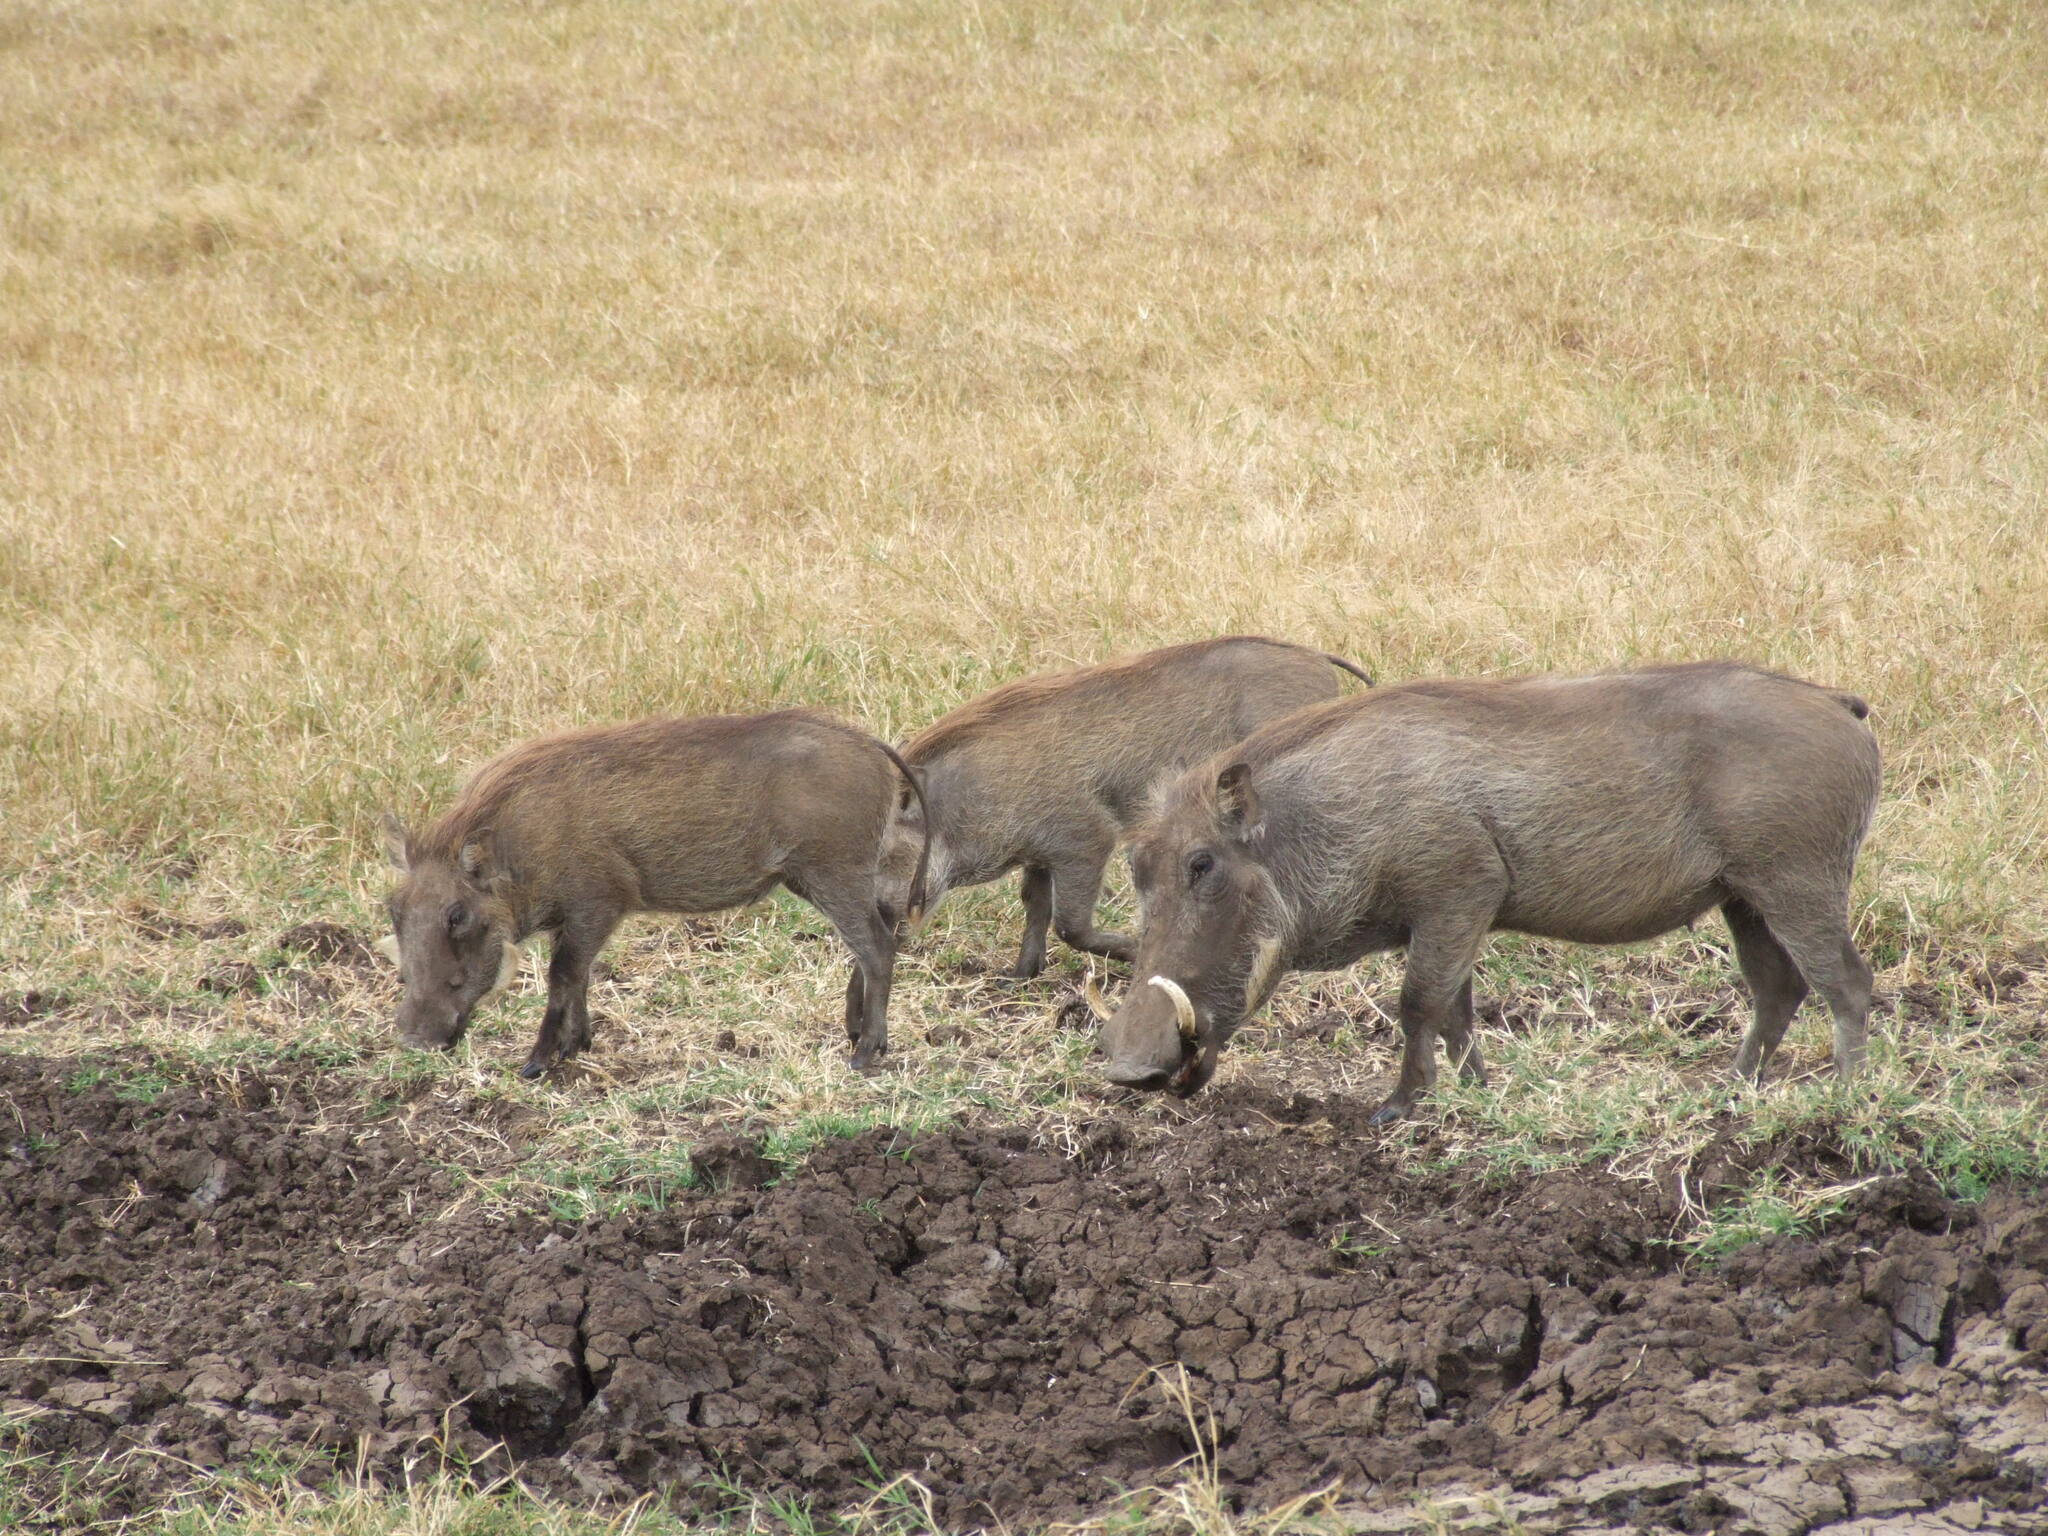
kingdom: Animalia
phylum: Chordata
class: Mammalia
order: Artiodactyla
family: Suidae
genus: Phacochoerus
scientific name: Phacochoerus africanus
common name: Common warthog
